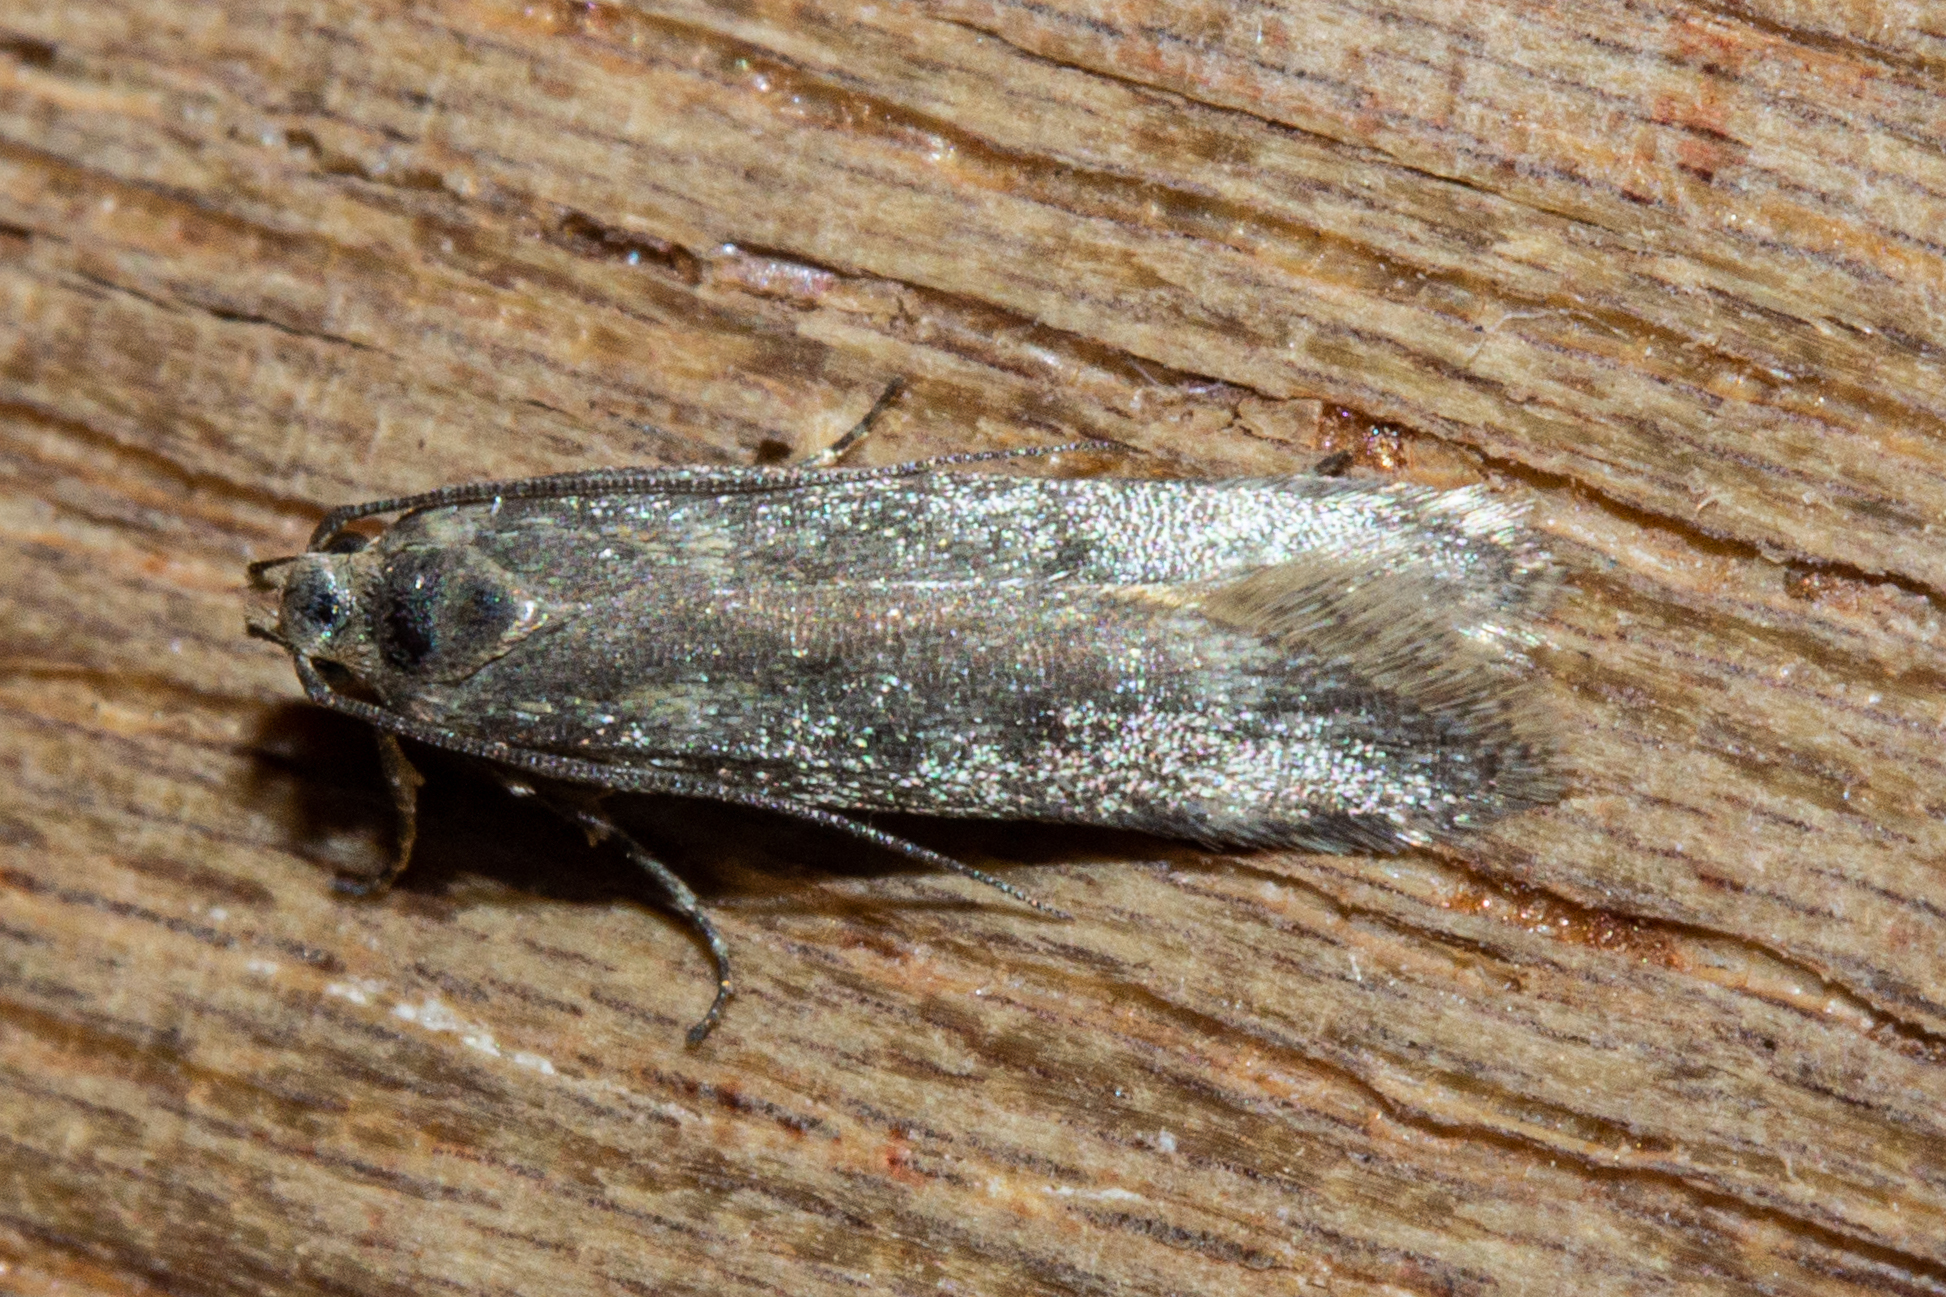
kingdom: Animalia
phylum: Arthropoda
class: Insecta
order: Lepidoptera
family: Gelechiidae
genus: Kiwaia
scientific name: Kiwaia lithodes
